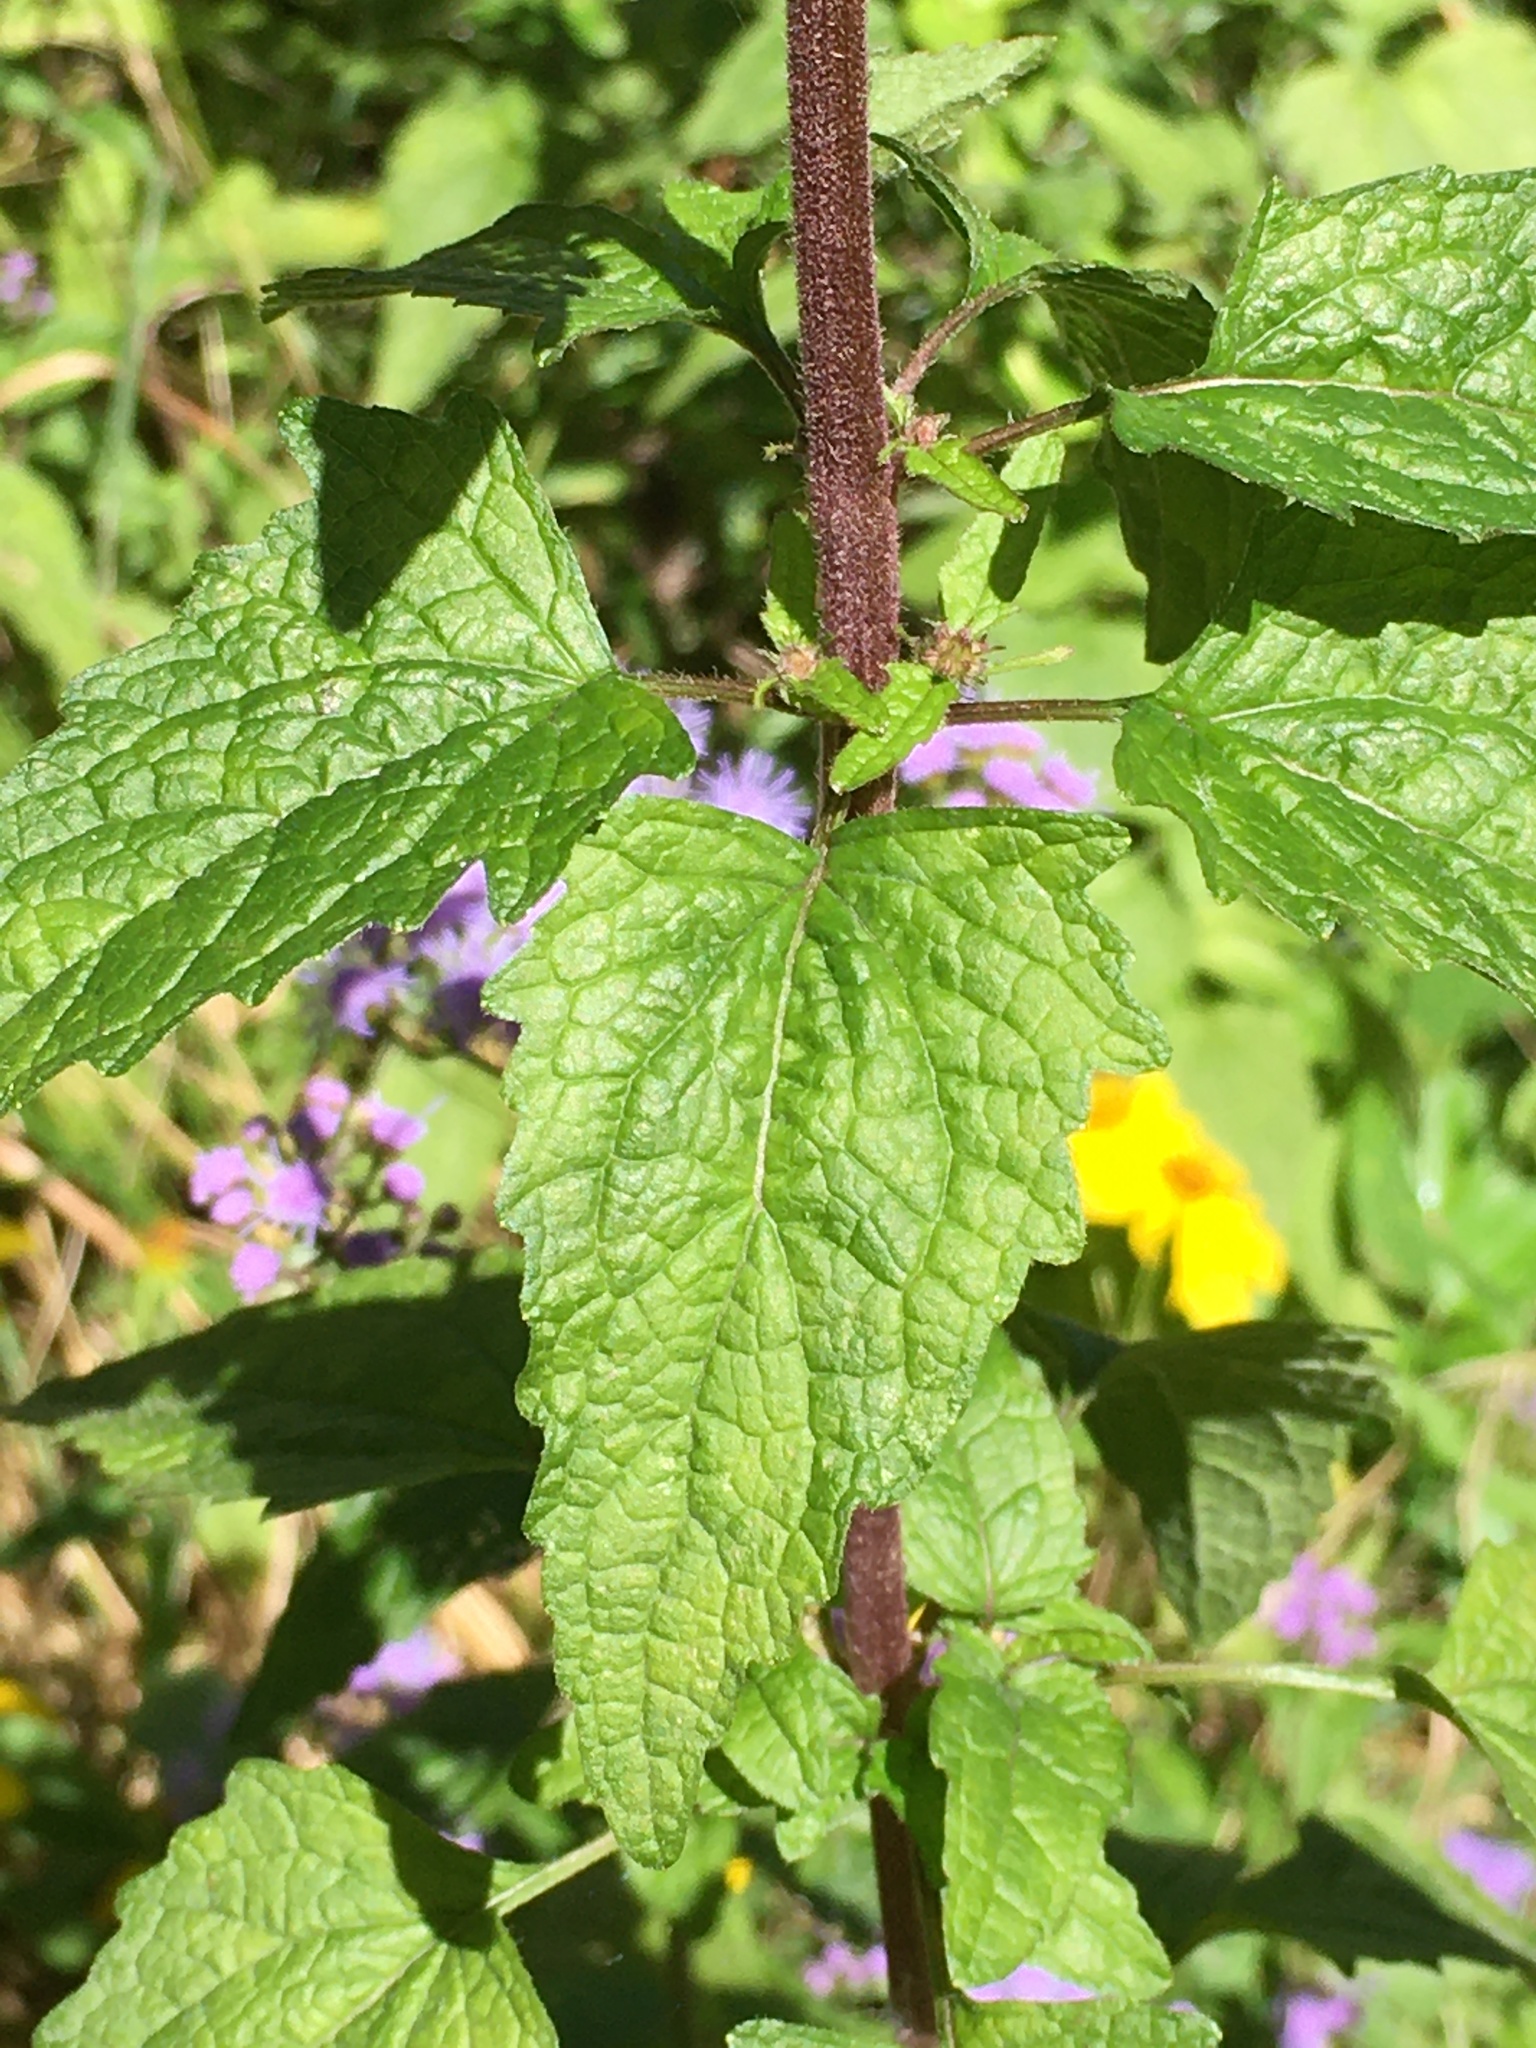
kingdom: Plantae
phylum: Tracheophyta
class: Magnoliopsida
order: Asterales
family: Asteraceae
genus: Conoclinium
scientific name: Conoclinium coelestinum
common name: Blue mistflower
